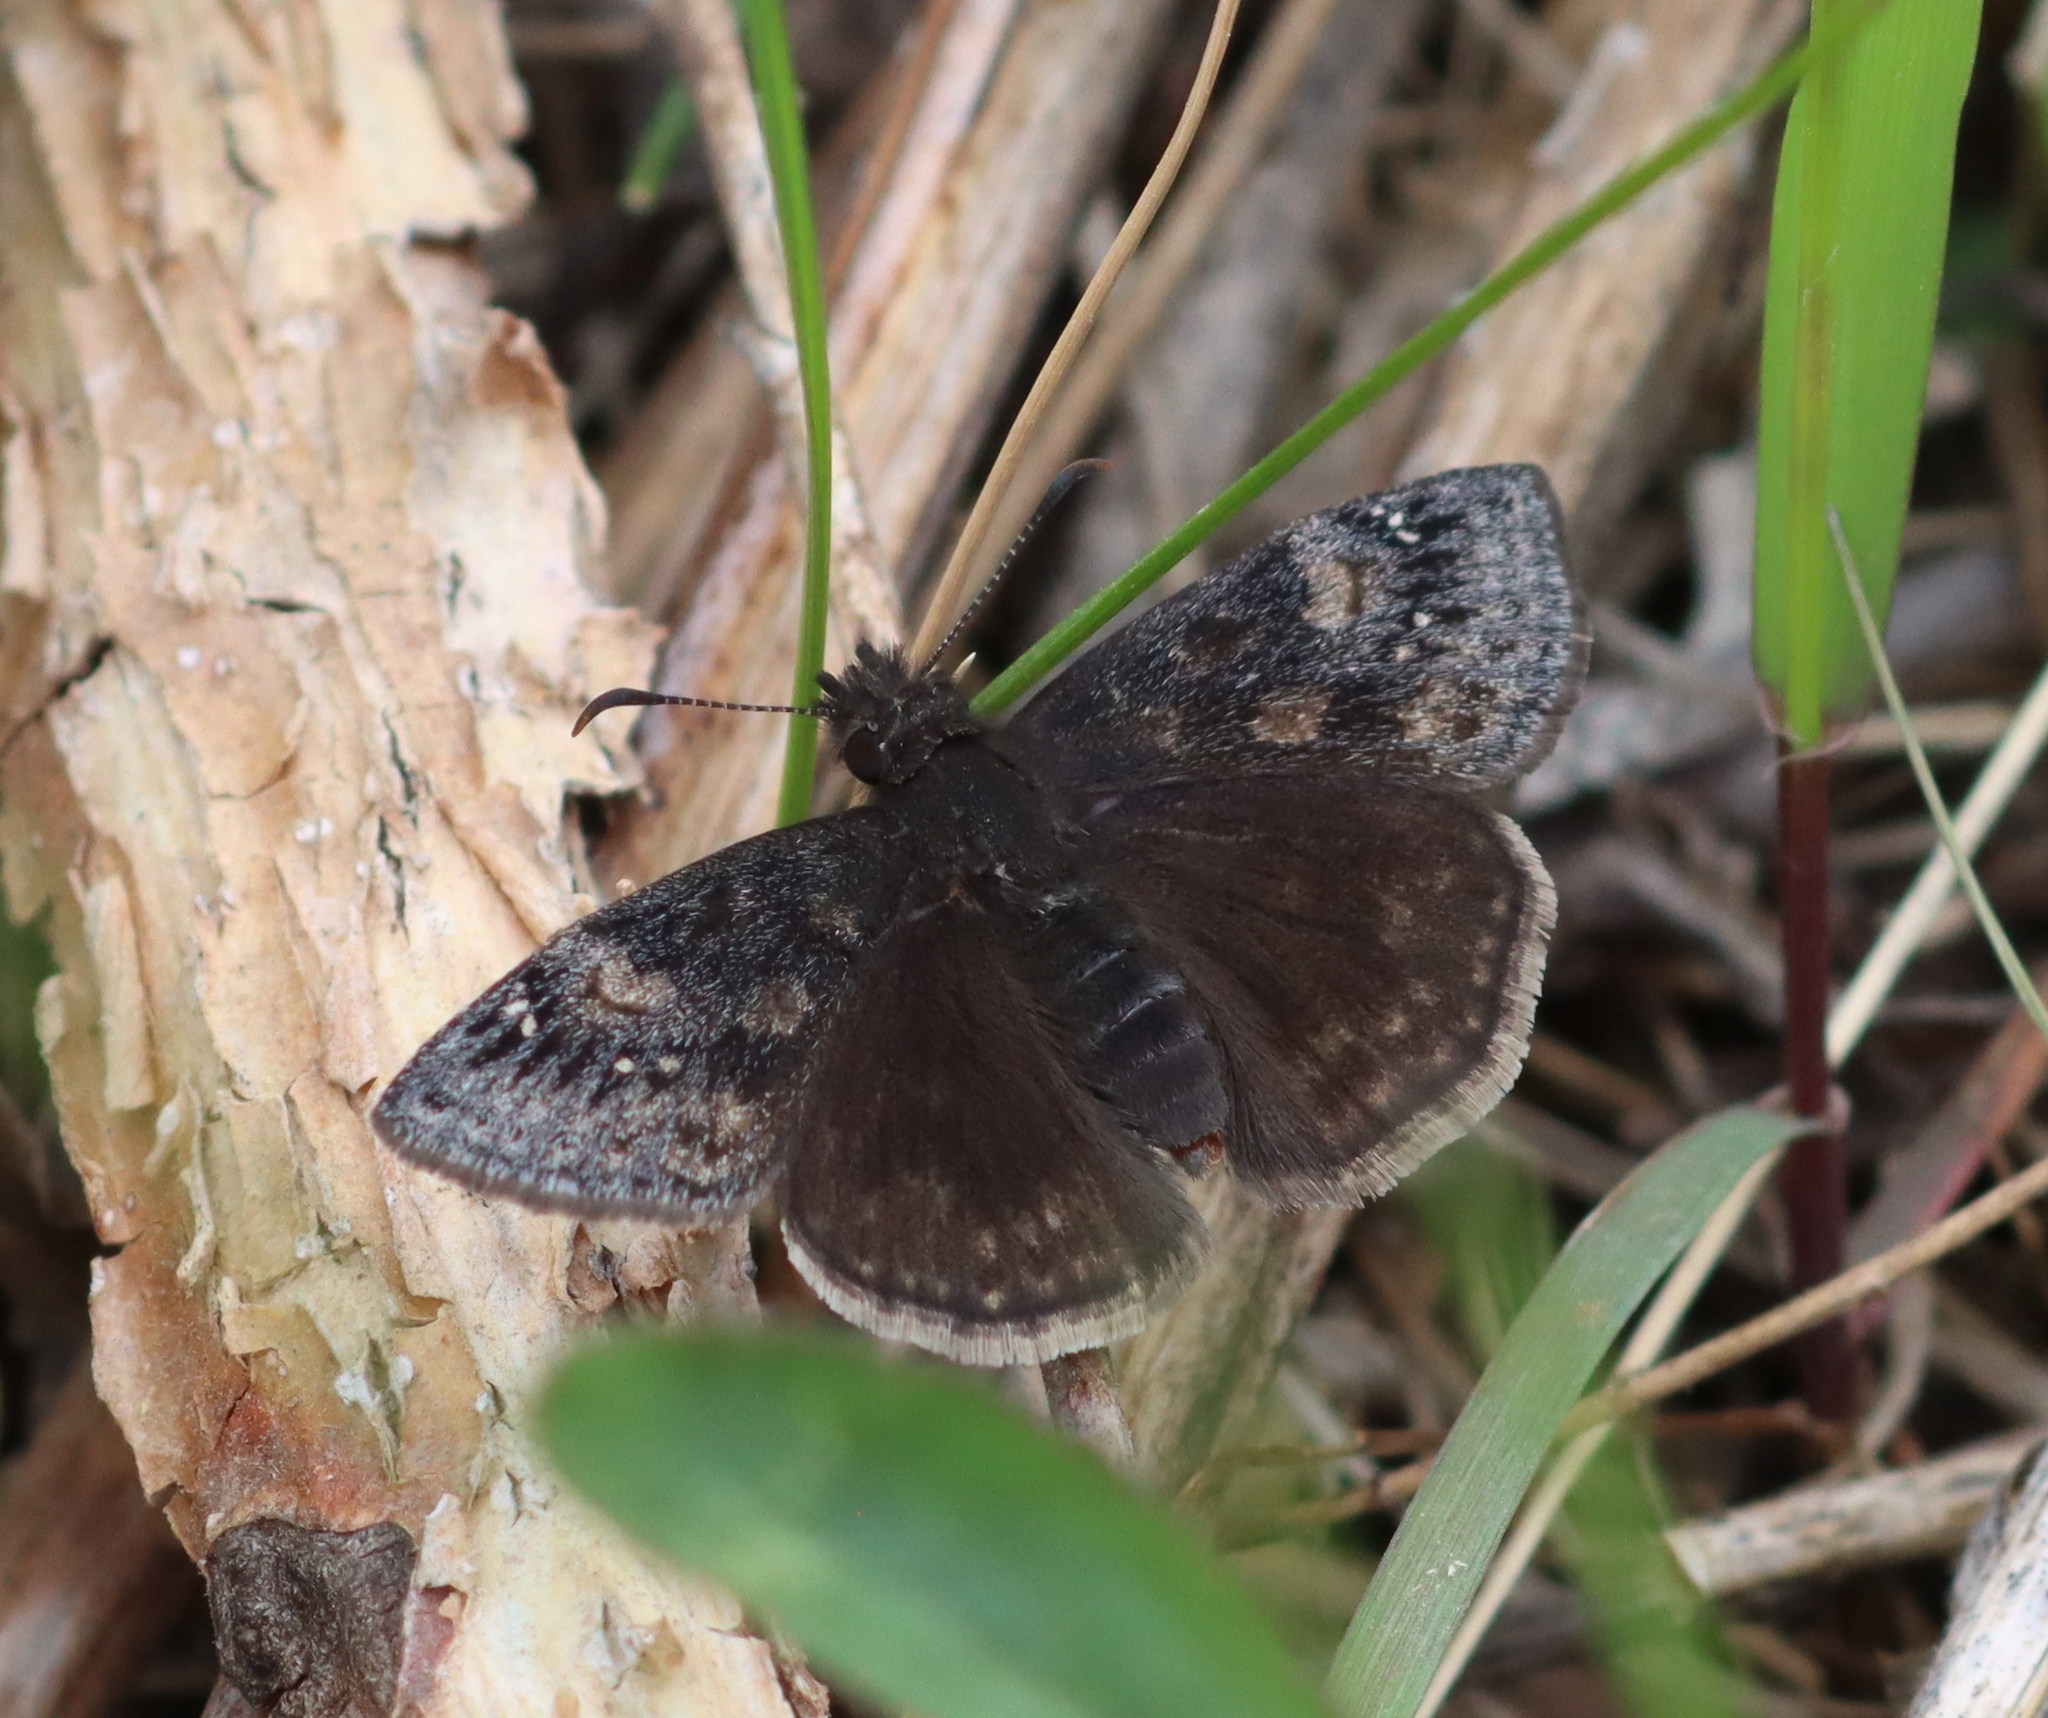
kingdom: Animalia
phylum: Arthropoda
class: Insecta
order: Lepidoptera
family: Hesperiidae
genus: Erynnis
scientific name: Erynnis baptisiae
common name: Wild indigo duskywing
